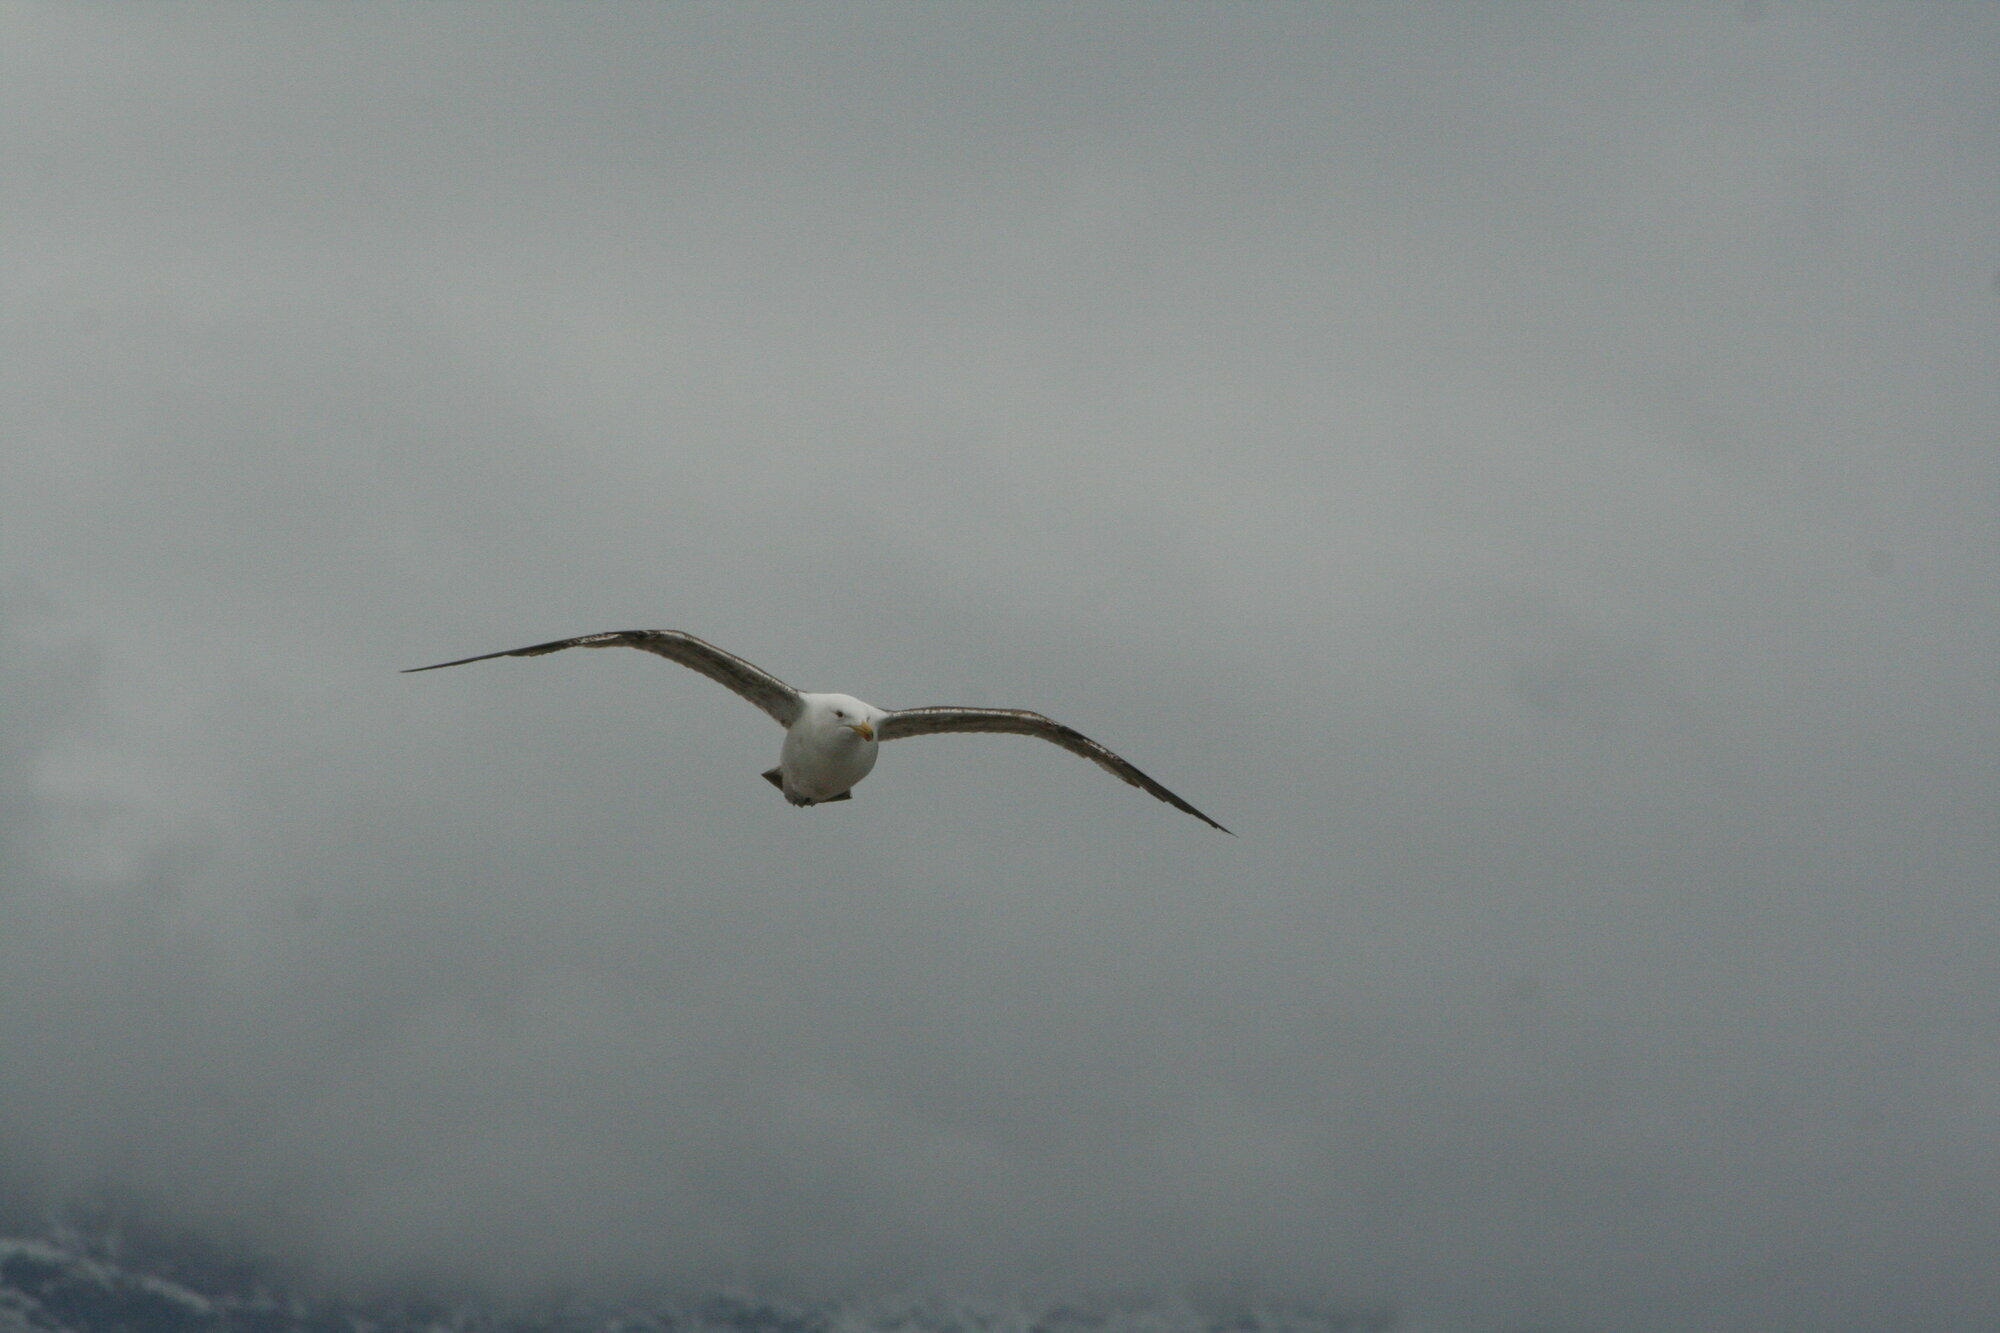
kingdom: Animalia
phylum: Chordata
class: Aves
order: Charadriiformes
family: Laridae
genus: Larus
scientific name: Larus dominicanus
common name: Kelp gull
